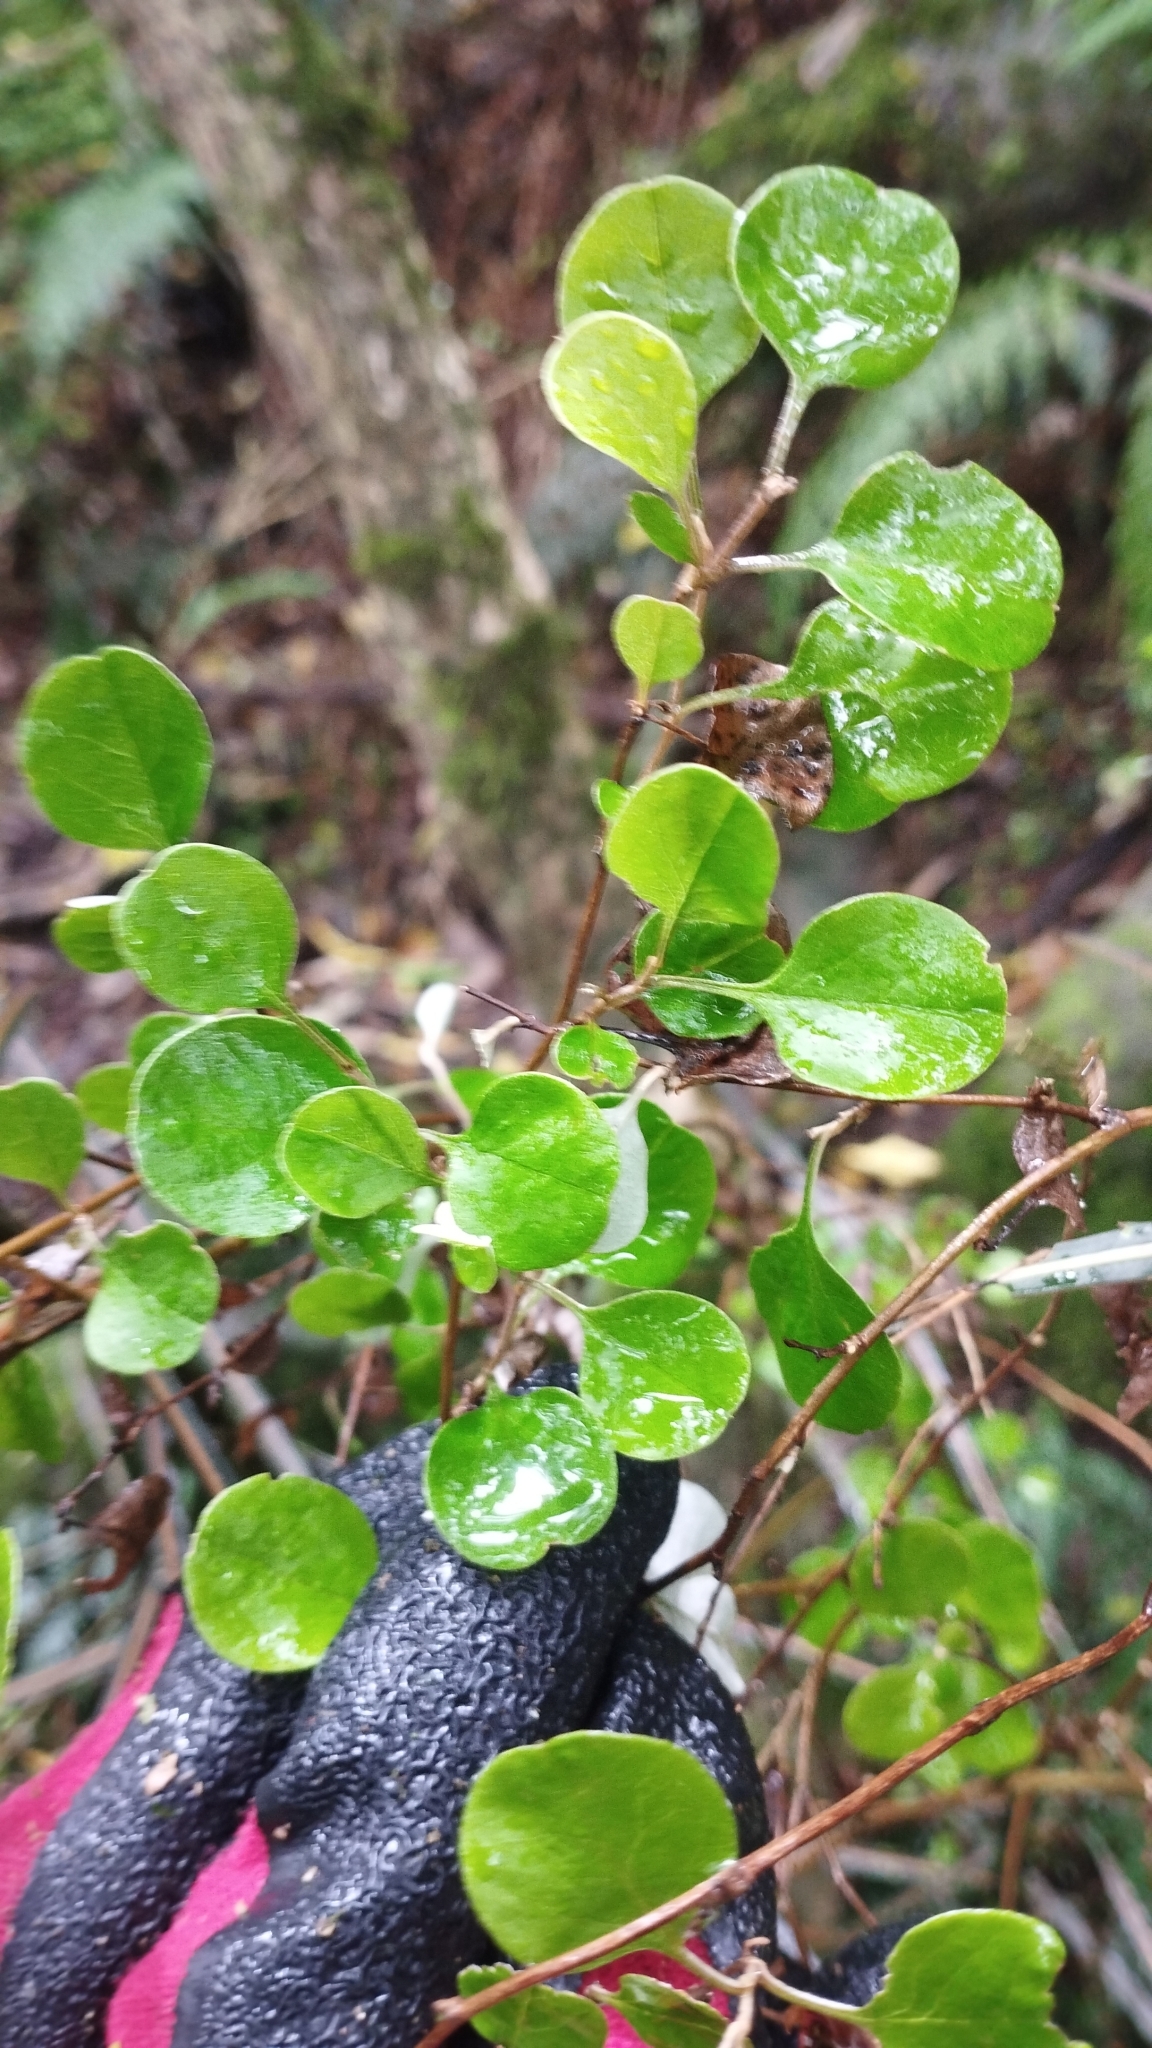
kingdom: Plantae
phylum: Tracheophyta
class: Magnoliopsida
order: Asterales
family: Asteraceae
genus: Ozothamnus
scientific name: Ozothamnus glomeratus
